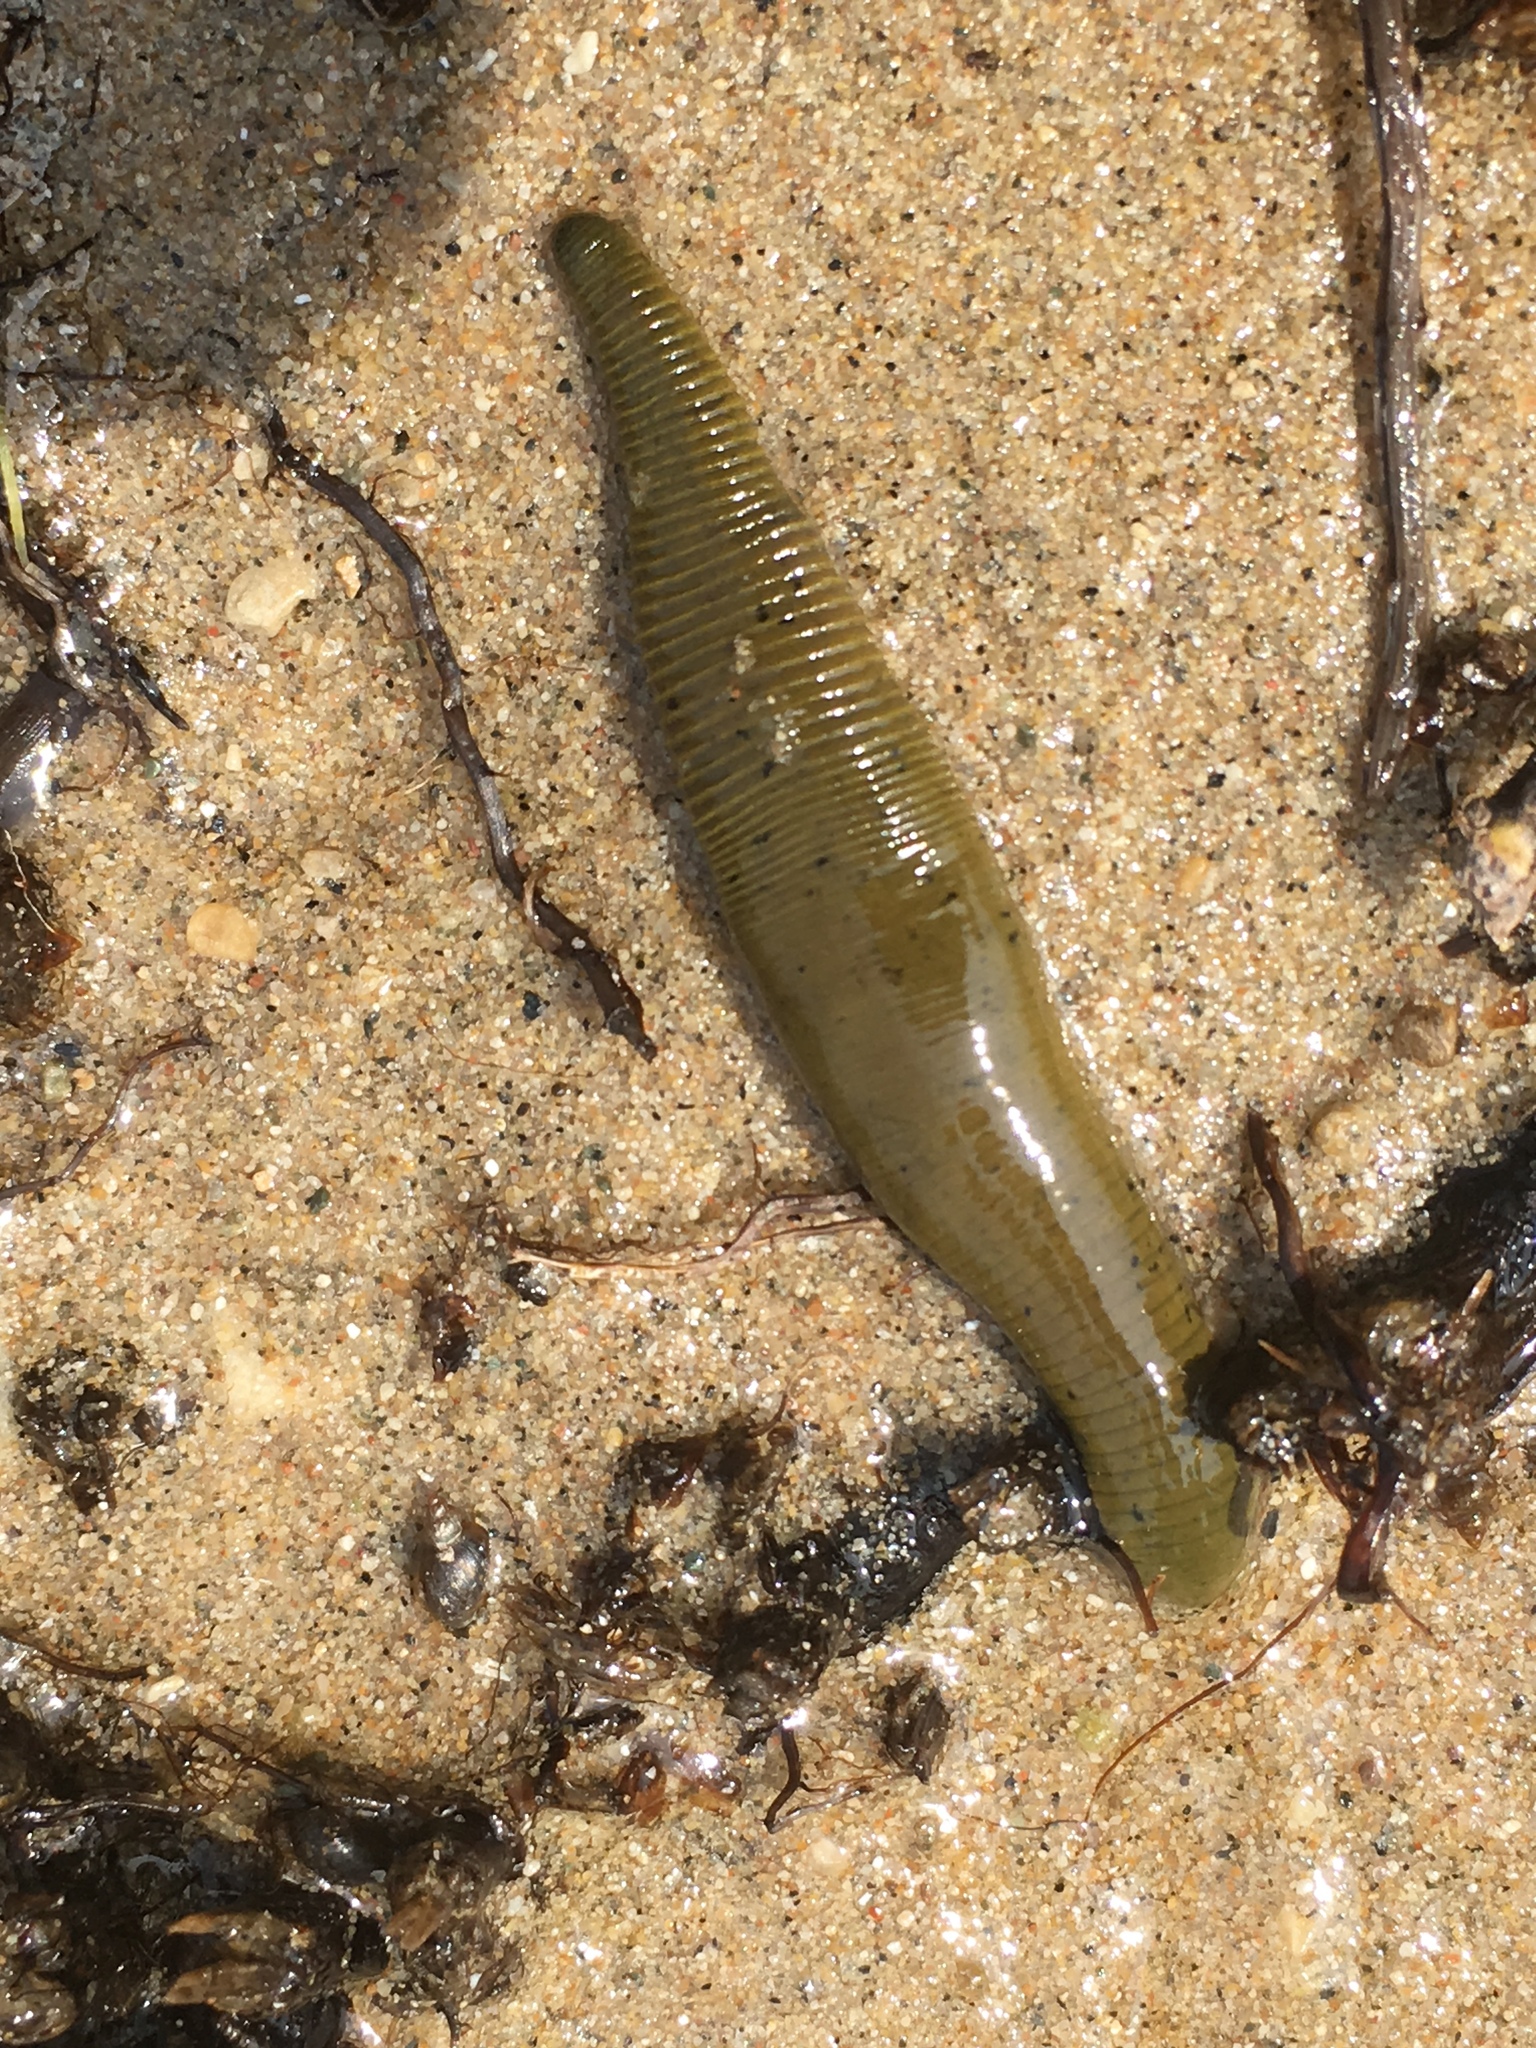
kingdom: Animalia
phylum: Annelida
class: Clitellata
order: Arhynchobdellida
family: Haemopidae
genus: Haemopis
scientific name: Haemopis grandis
